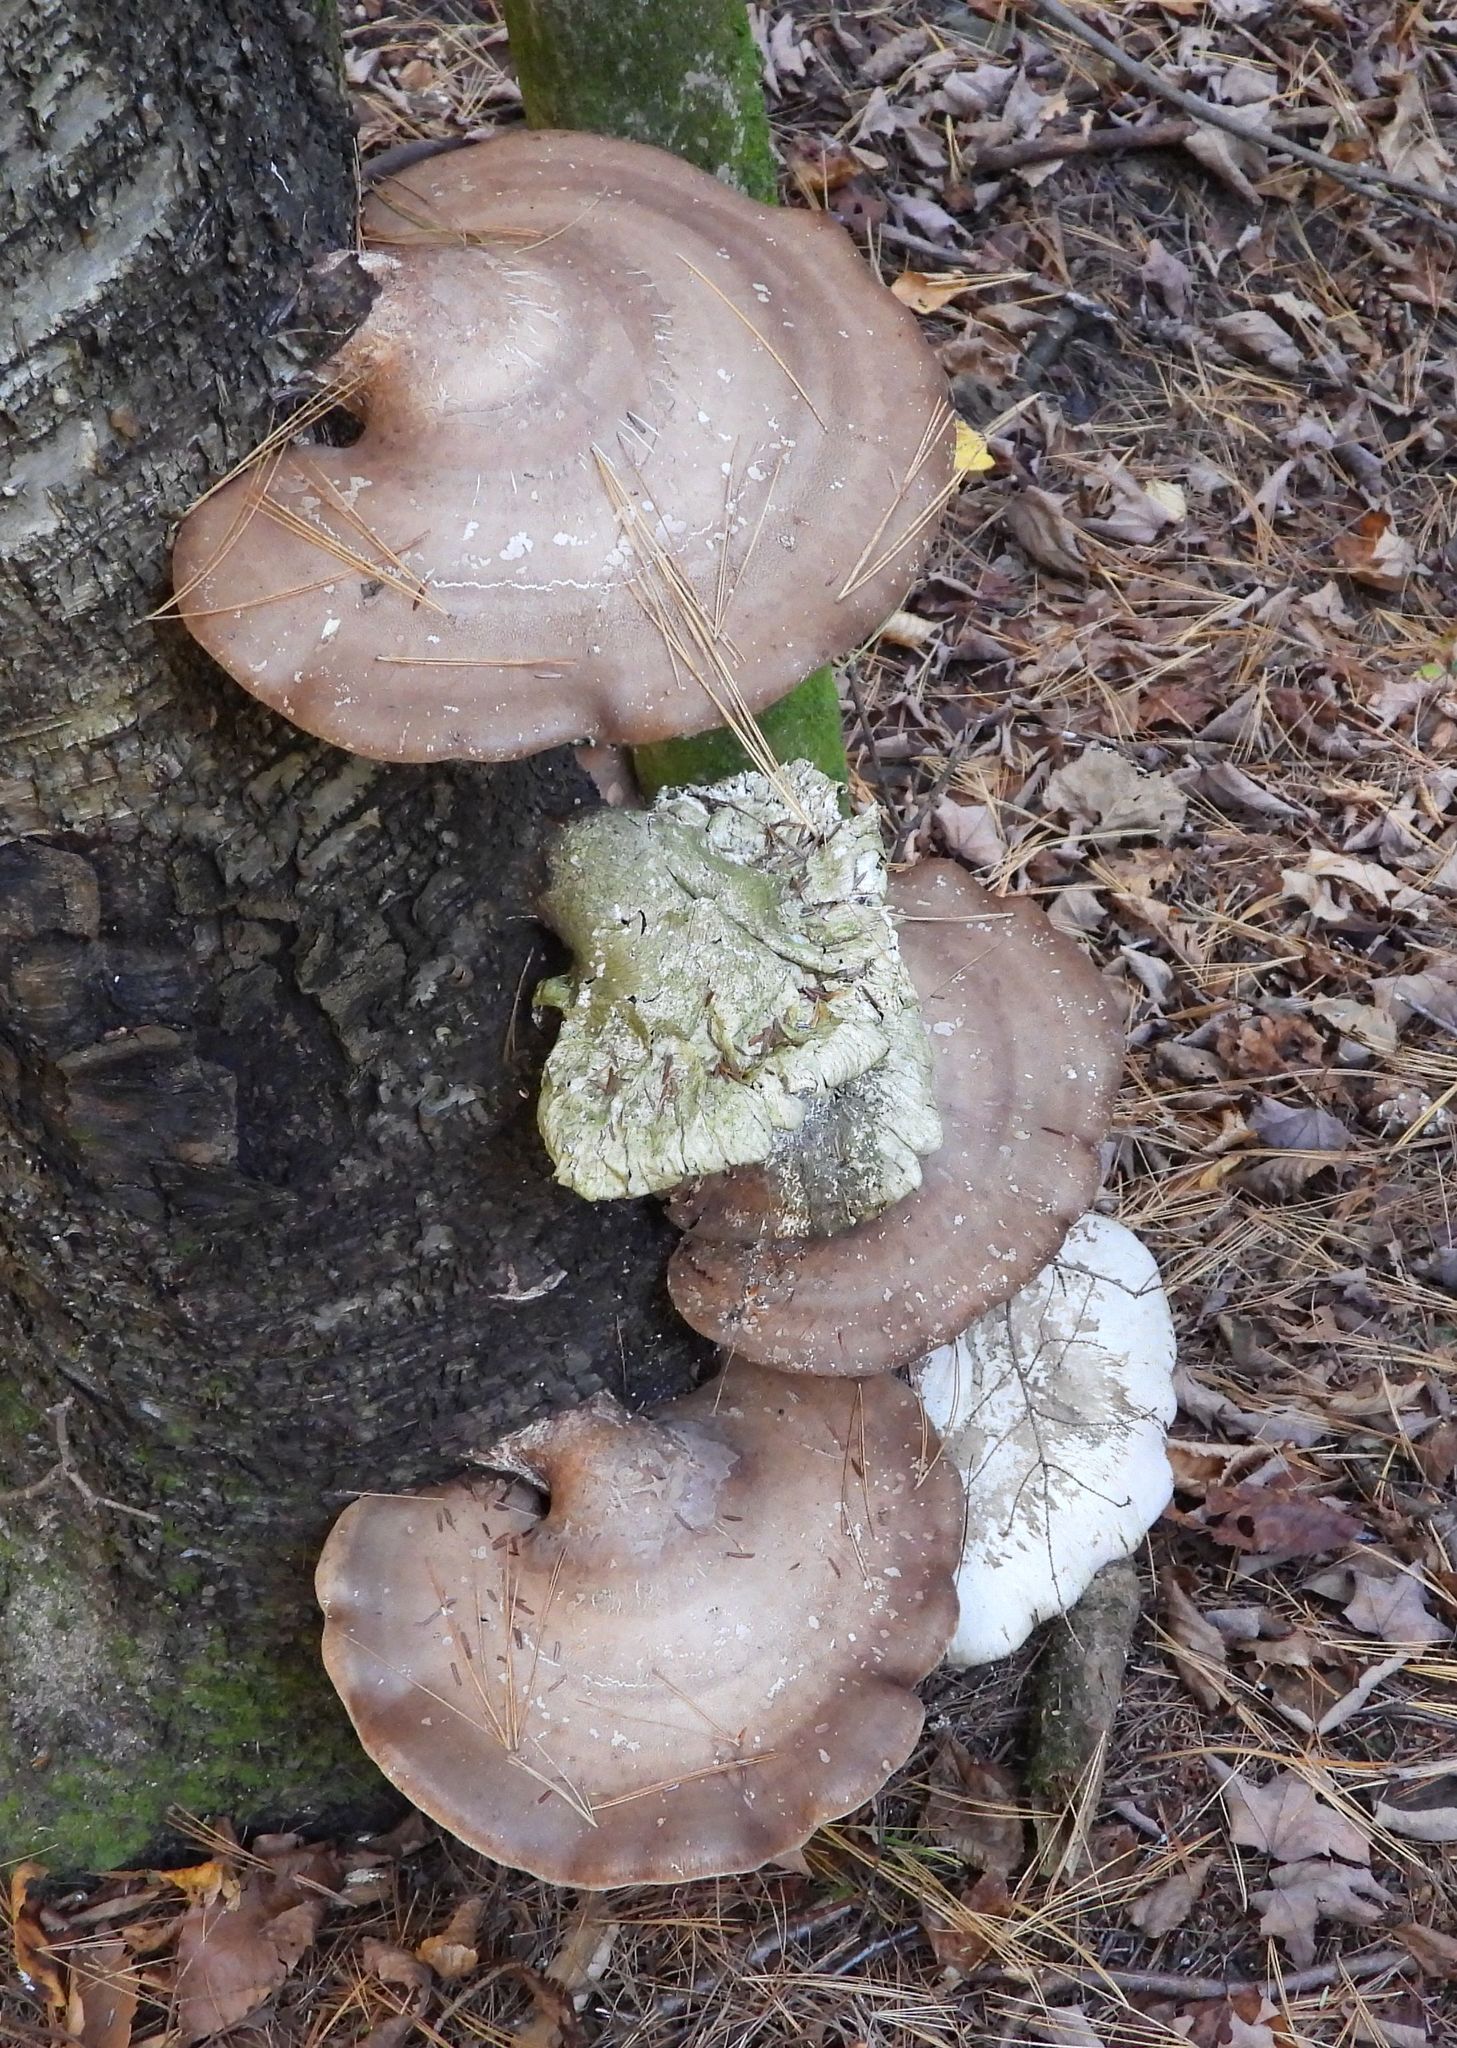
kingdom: Fungi
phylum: Basidiomycota
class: Agaricomycetes
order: Polyporales
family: Fomitopsidaceae
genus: Fomitopsis
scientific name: Fomitopsis betulina
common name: Birch polypore
